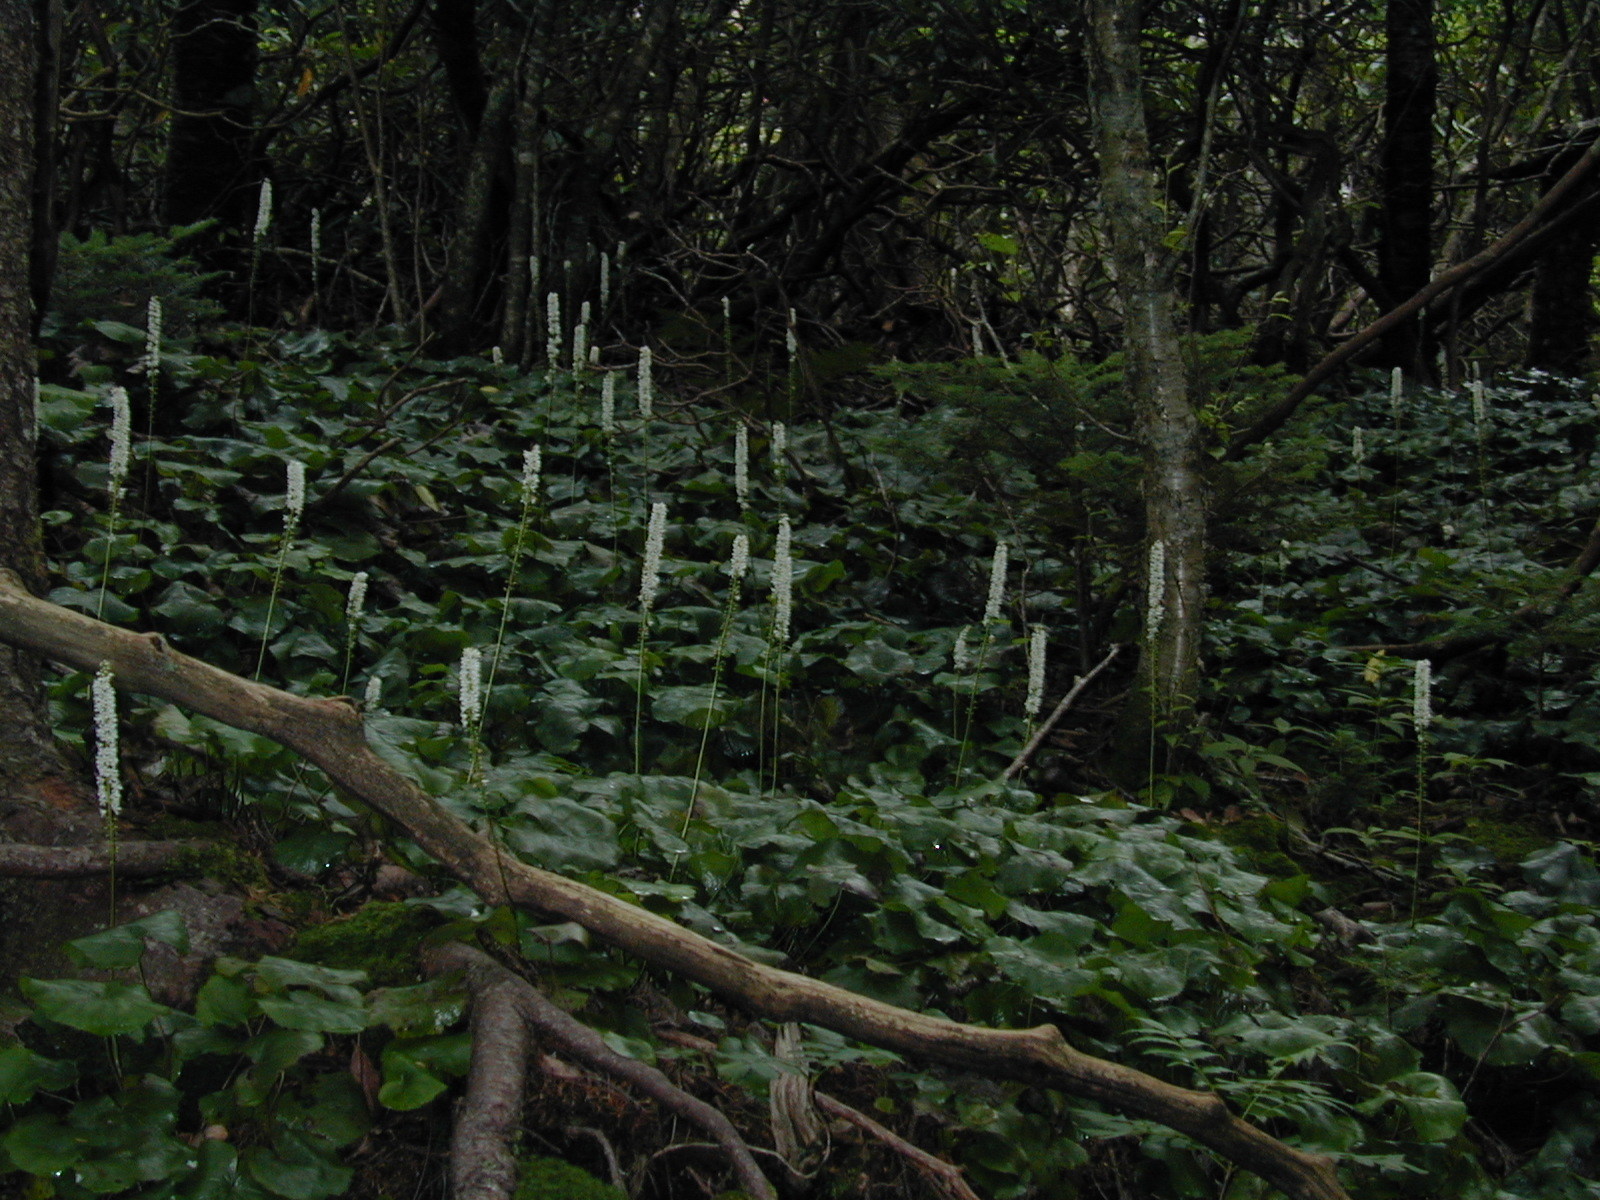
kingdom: Plantae
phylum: Tracheophyta
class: Magnoliopsida
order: Ericales
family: Diapensiaceae
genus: Galax
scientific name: Galax urceolata
